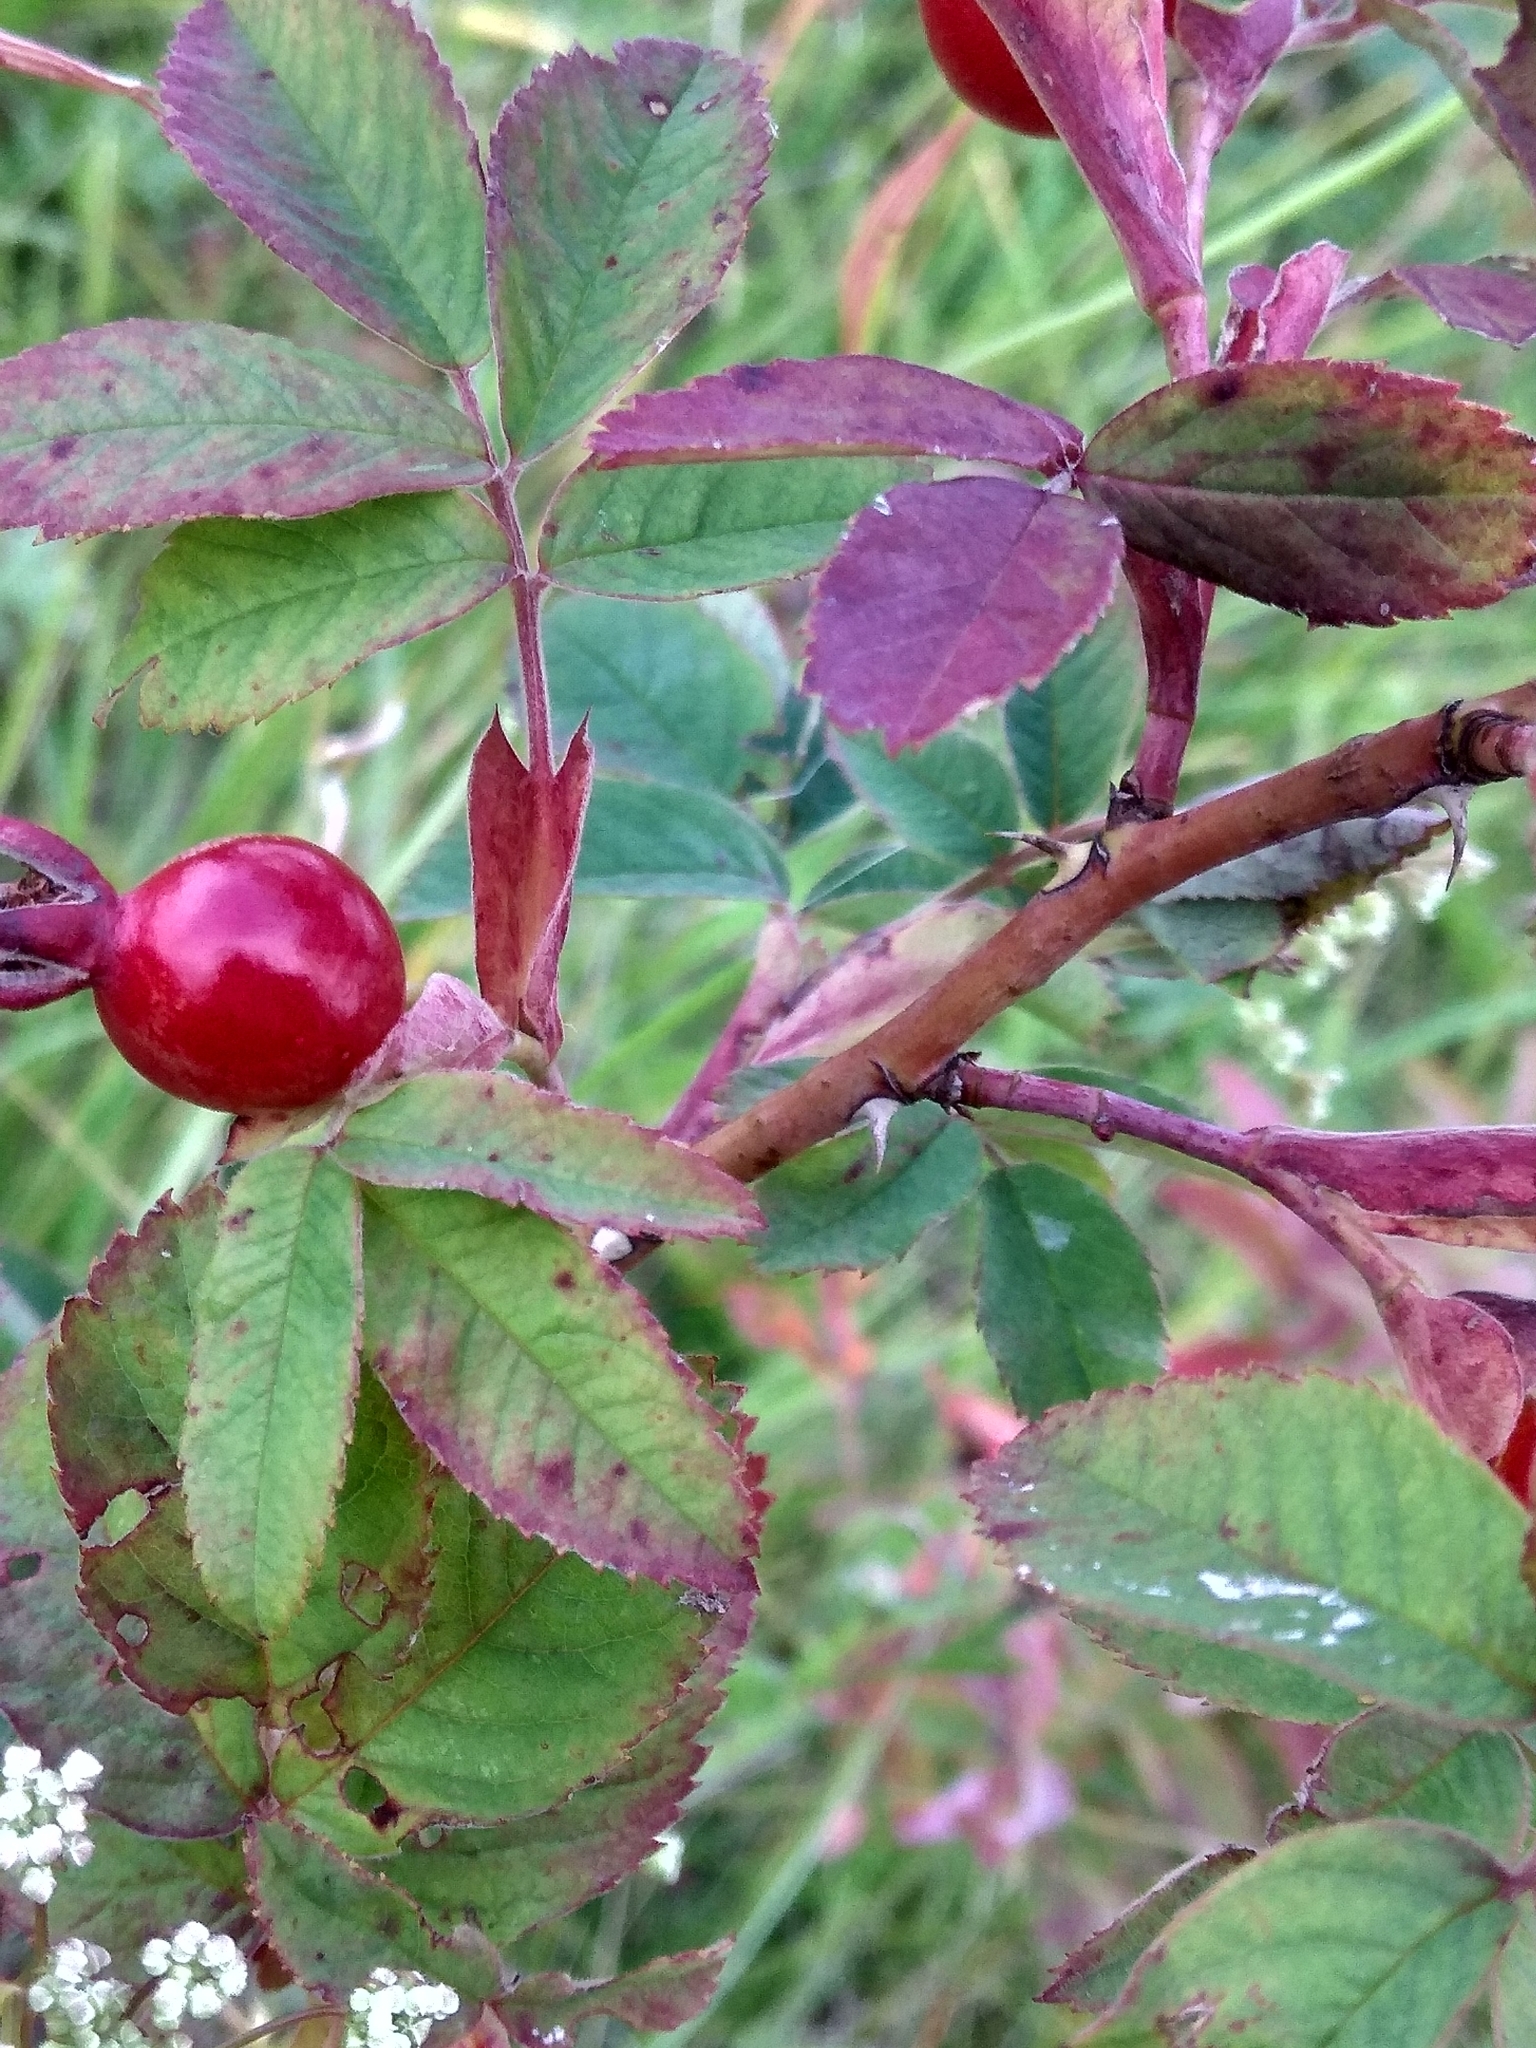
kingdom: Plantae
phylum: Tracheophyta
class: Magnoliopsida
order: Rosales
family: Rosaceae
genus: Rosa
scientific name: Rosa majalis
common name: Cinnamon rose
